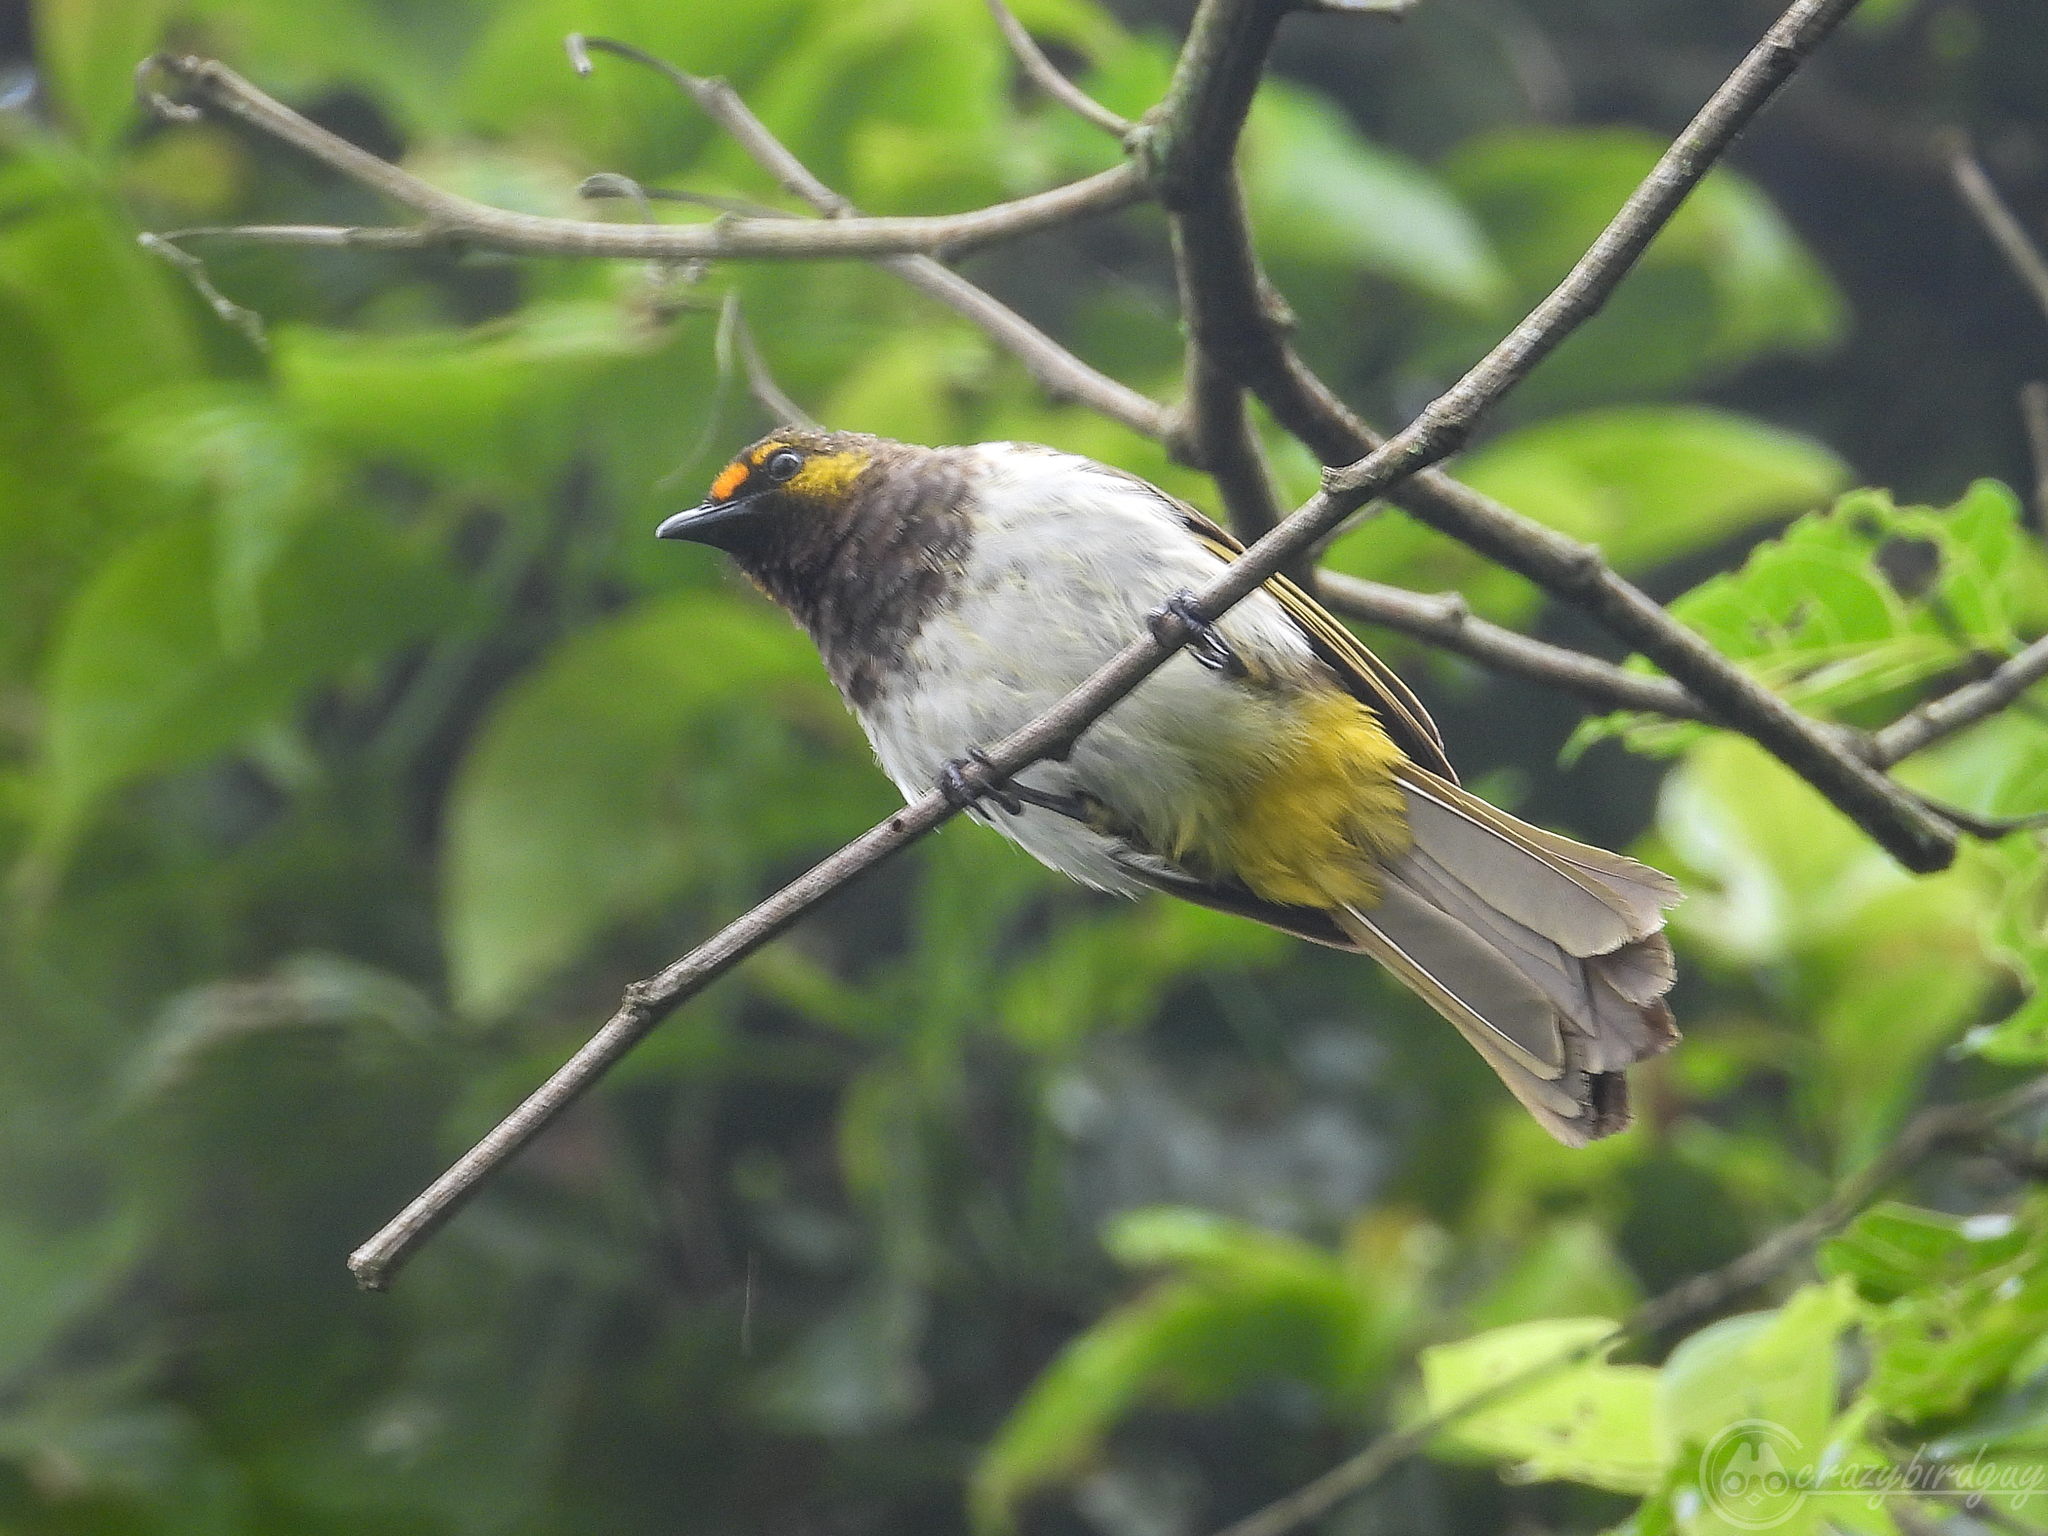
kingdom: Animalia
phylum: Chordata
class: Aves
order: Passeriformes
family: Pycnonotidae
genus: Pycnonotus
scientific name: Pycnonotus bimaculatus
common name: Orange-spotted bulbul
